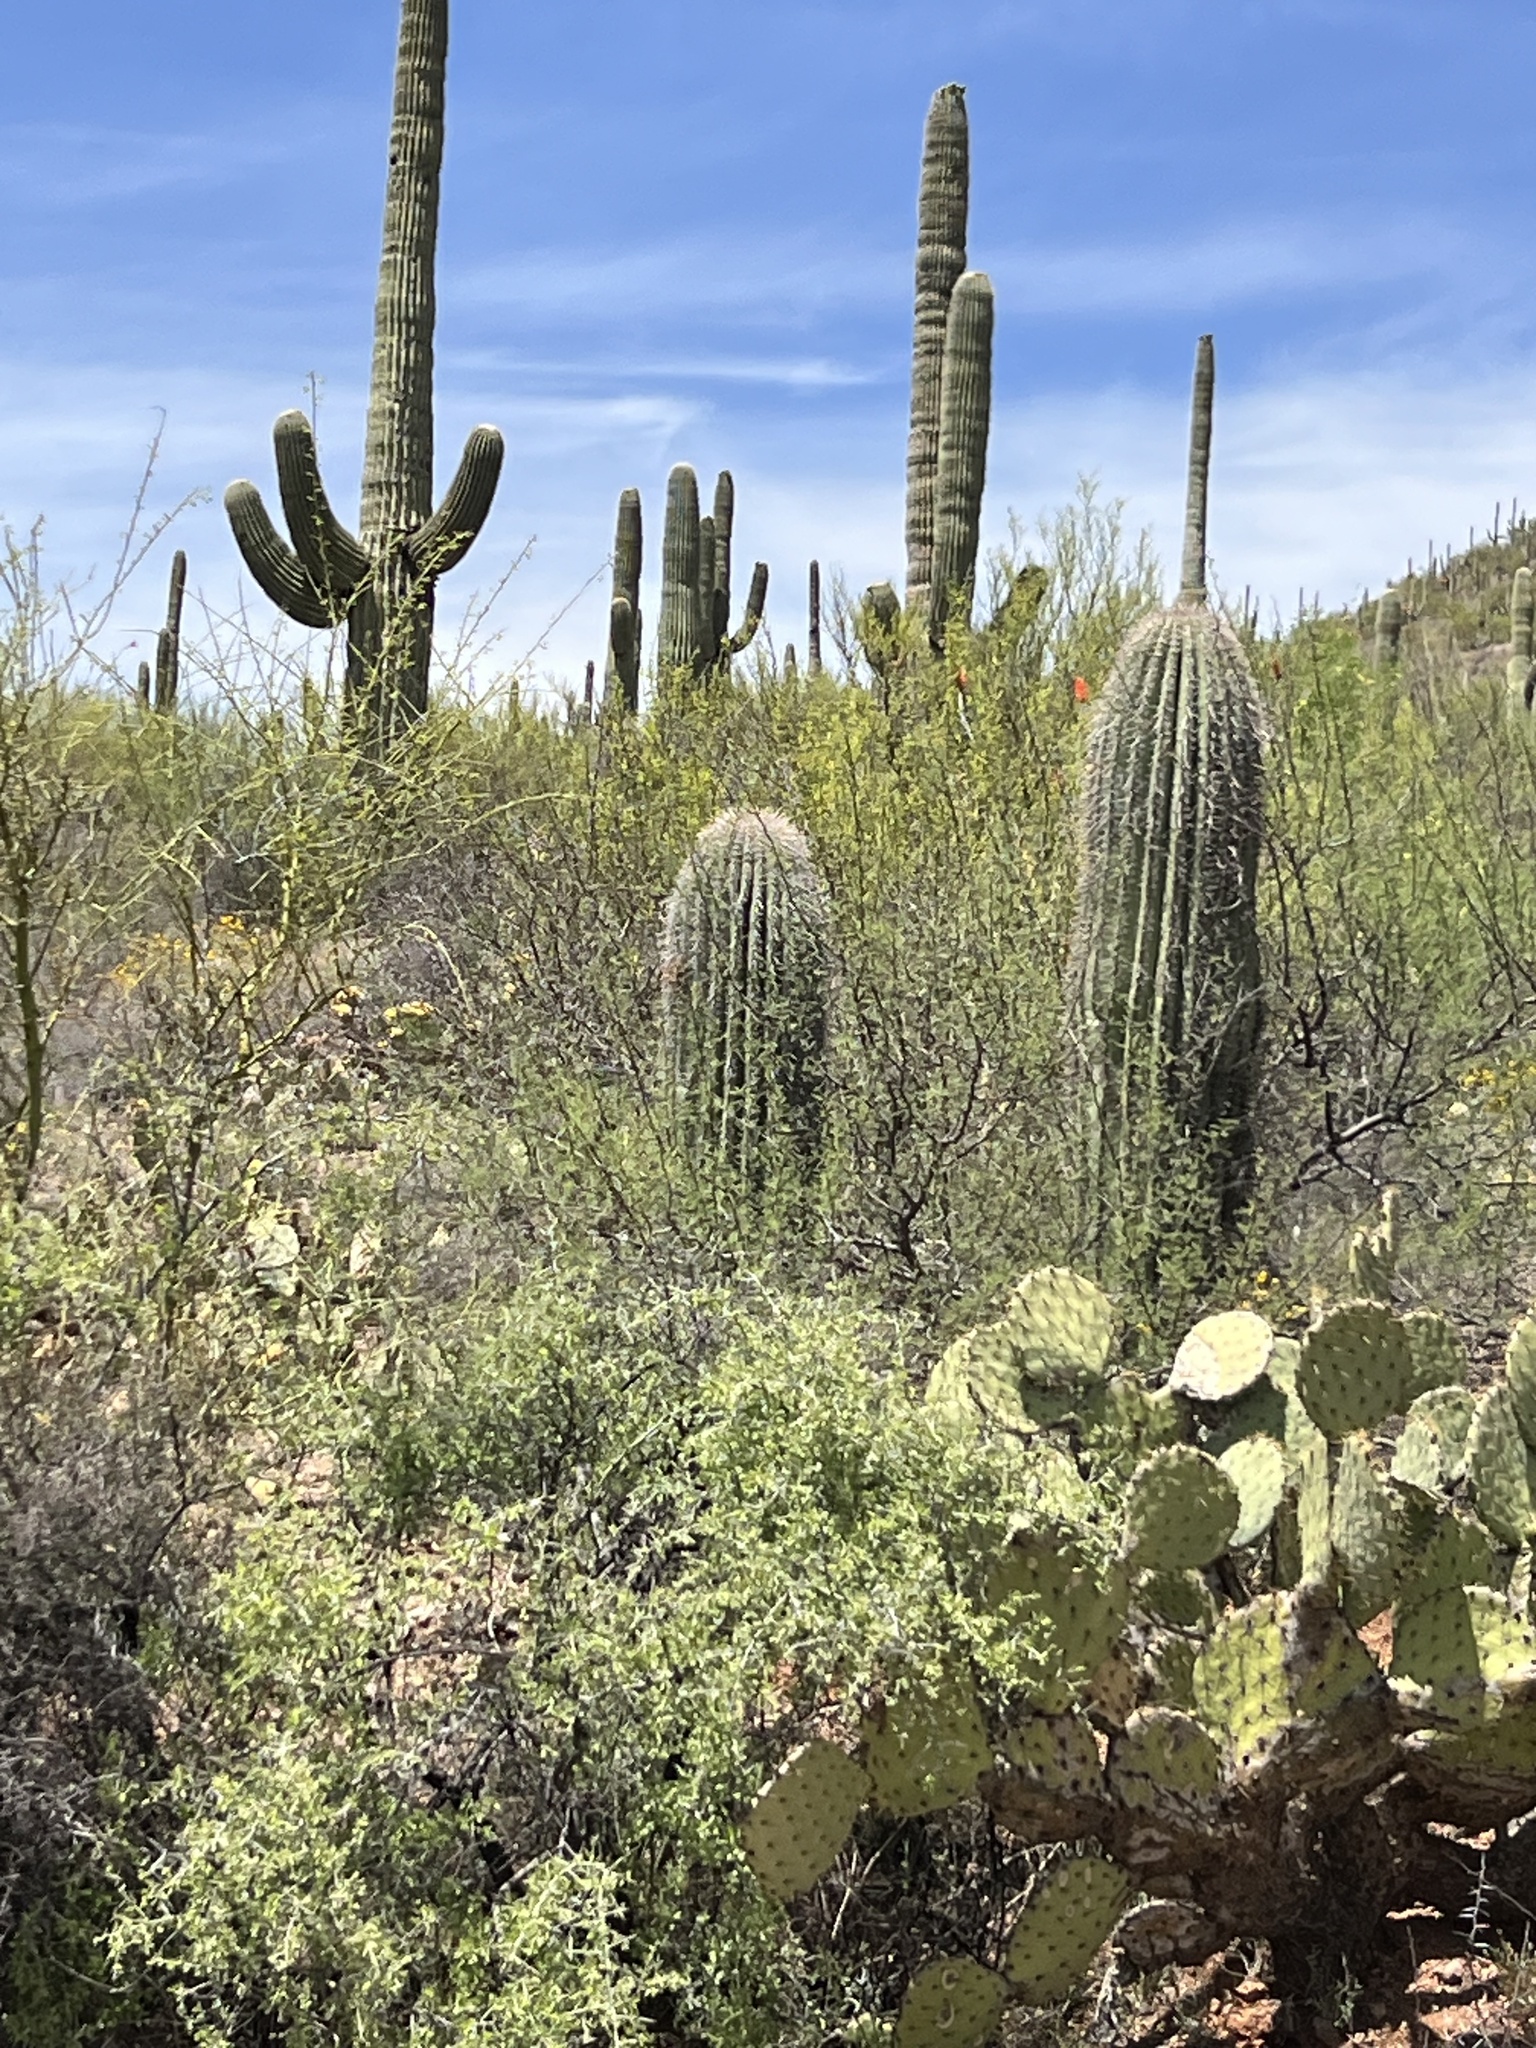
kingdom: Plantae
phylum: Tracheophyta
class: Magnoliopsida
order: Caryophyllales
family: Cactaceae
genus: Carnegiea
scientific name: Carnegiea gigantea
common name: Saguaro
